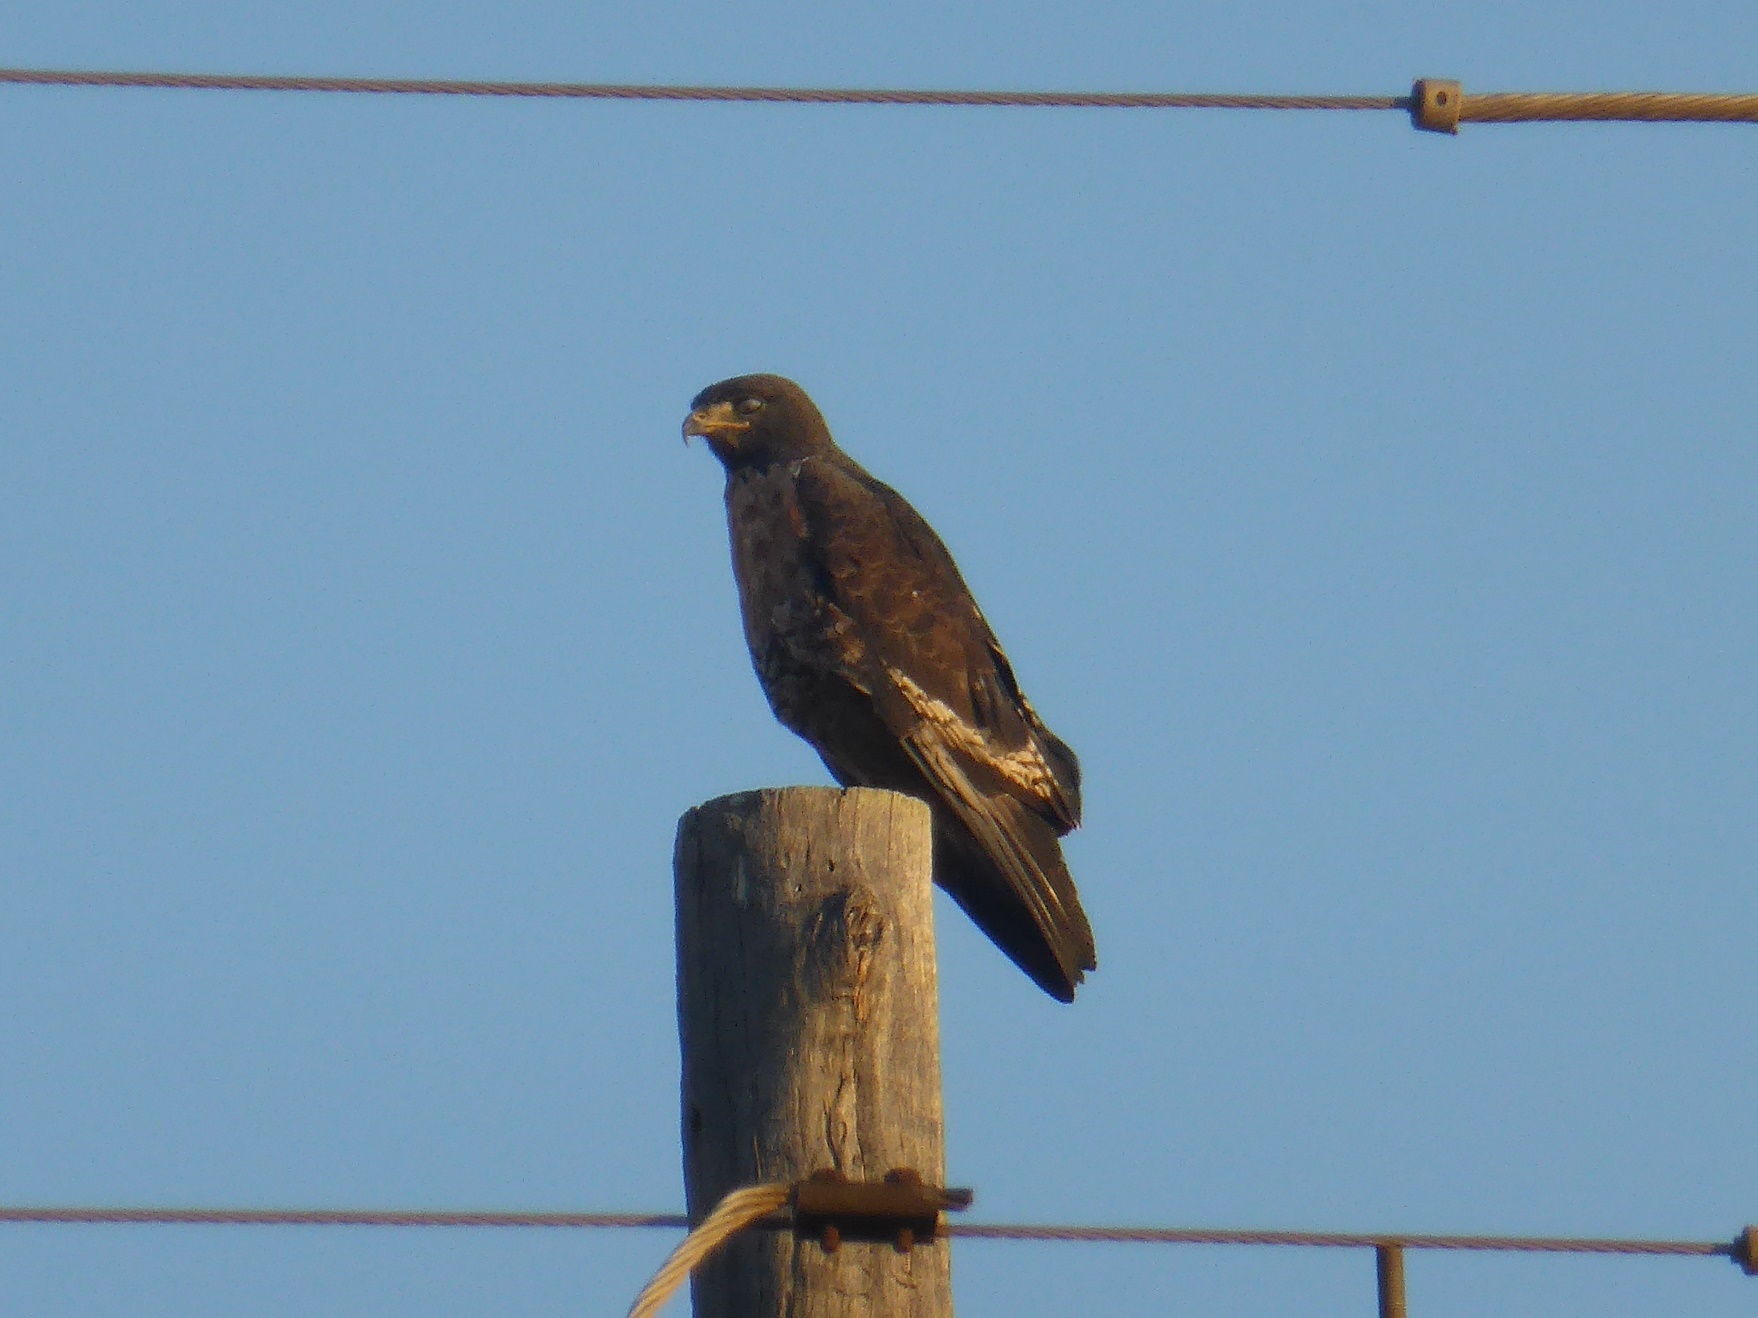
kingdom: Animalia
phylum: Chordata
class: Aves
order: Accipitriformes
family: Accipitridae
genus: Buteo
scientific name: Buteo rufofuscus
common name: Jackal buzzard
